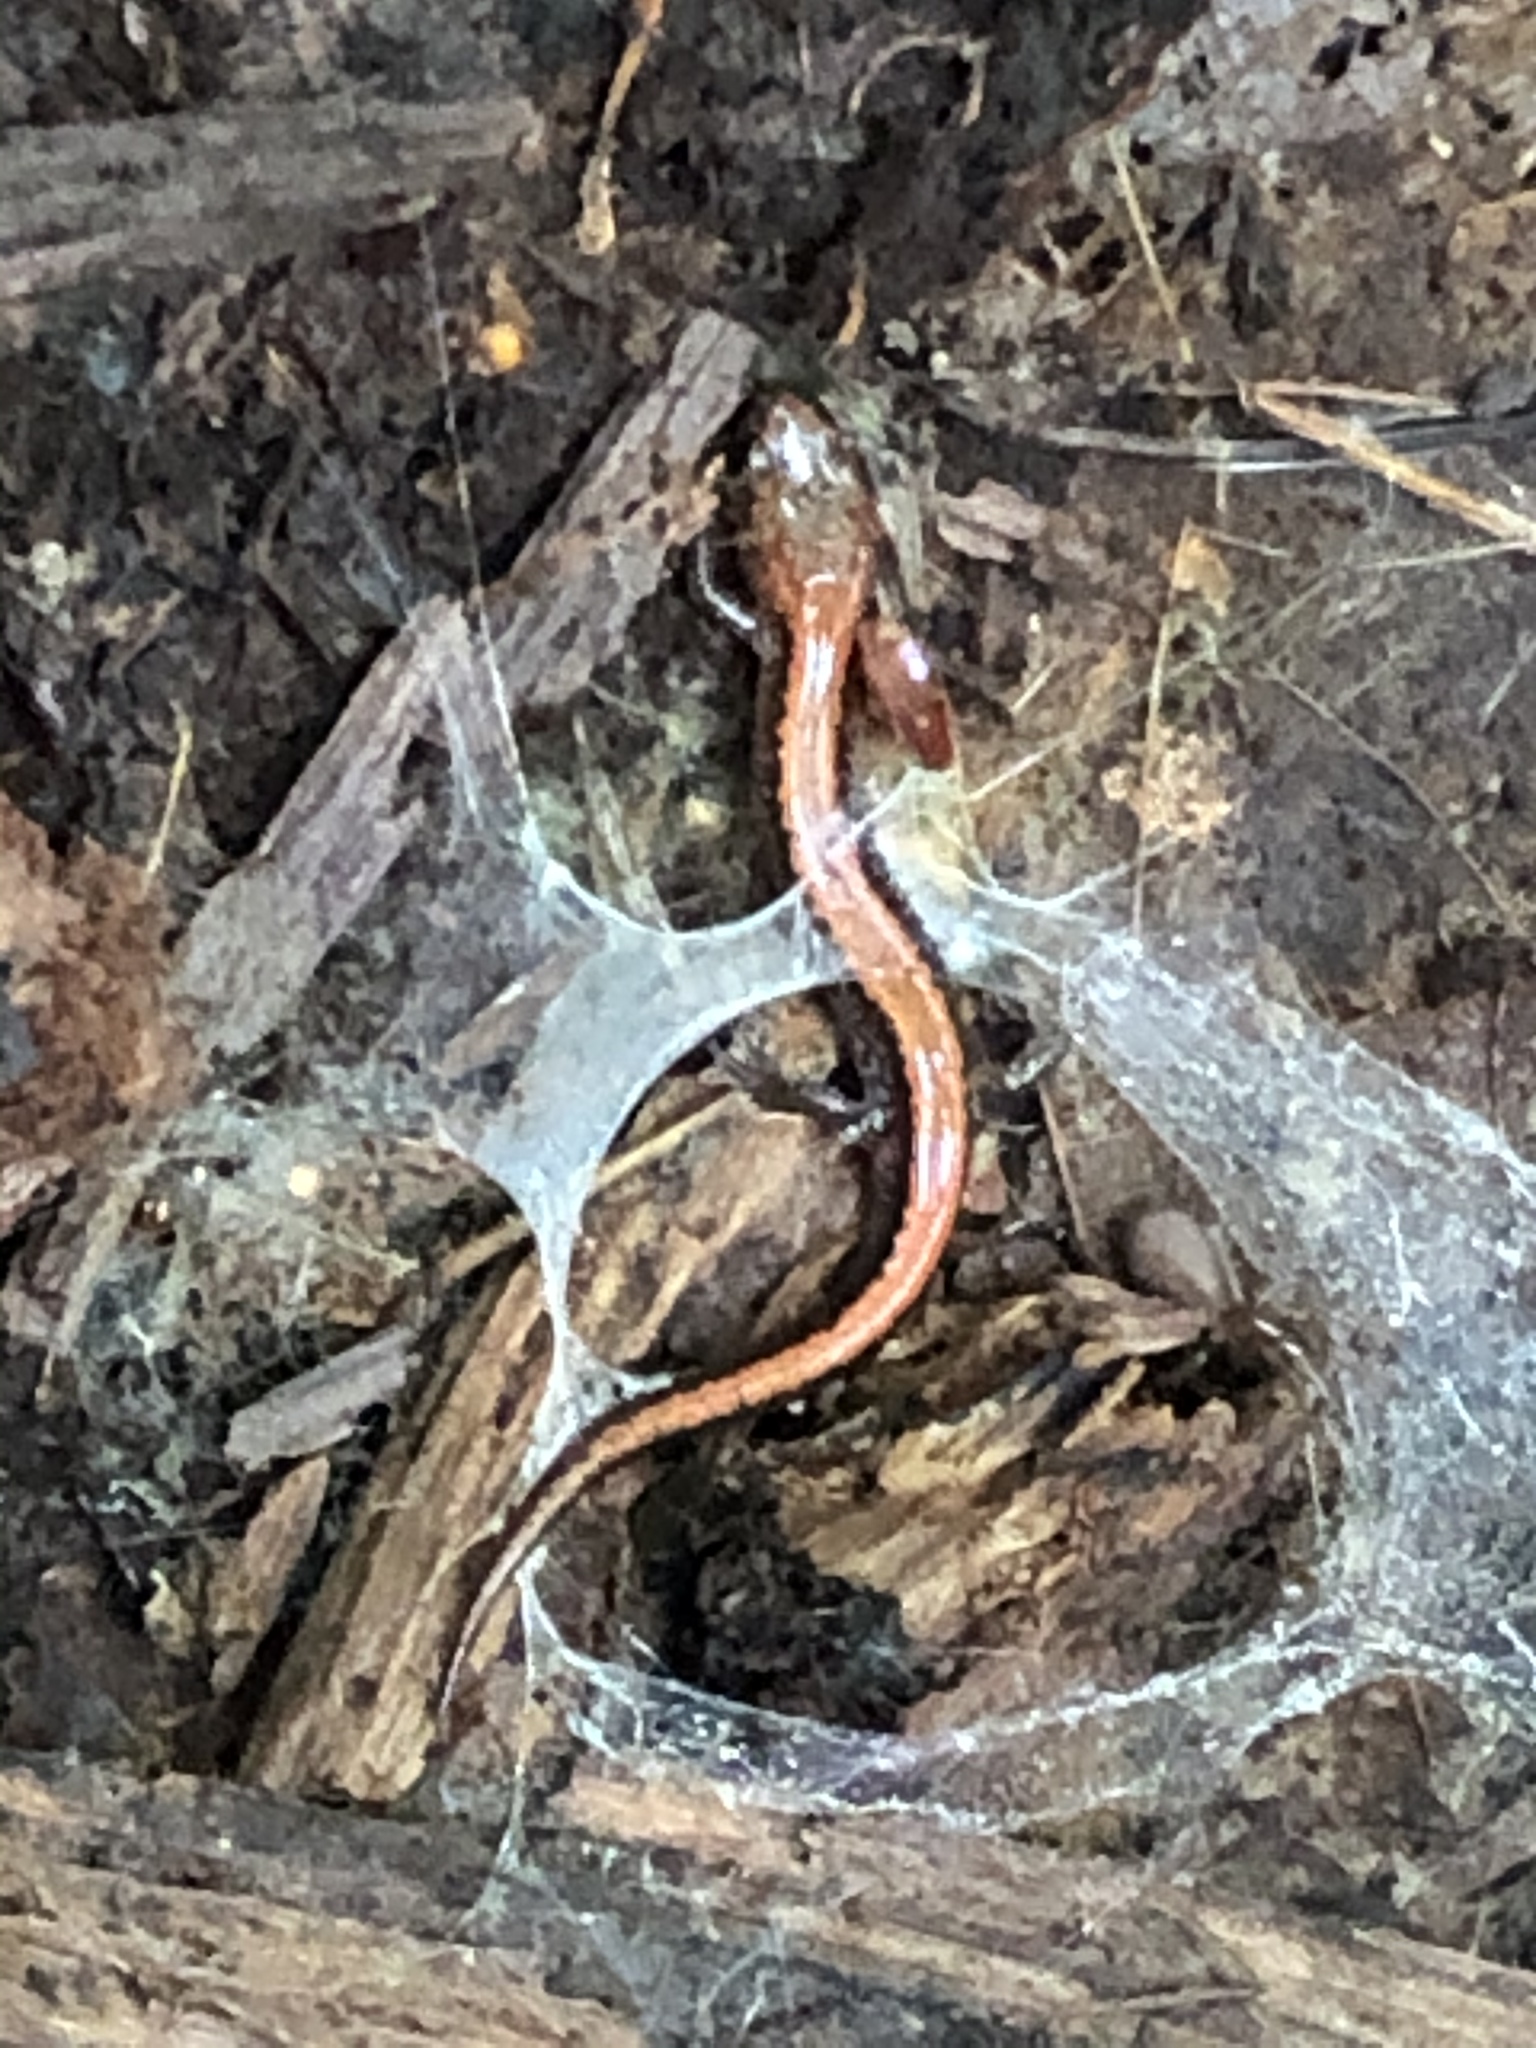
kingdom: Animalia
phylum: Chordata
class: Amphibia
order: Caudata
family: Plethodontidae
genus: Plethodon
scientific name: Plethodon cinereus
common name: Redback salamander
